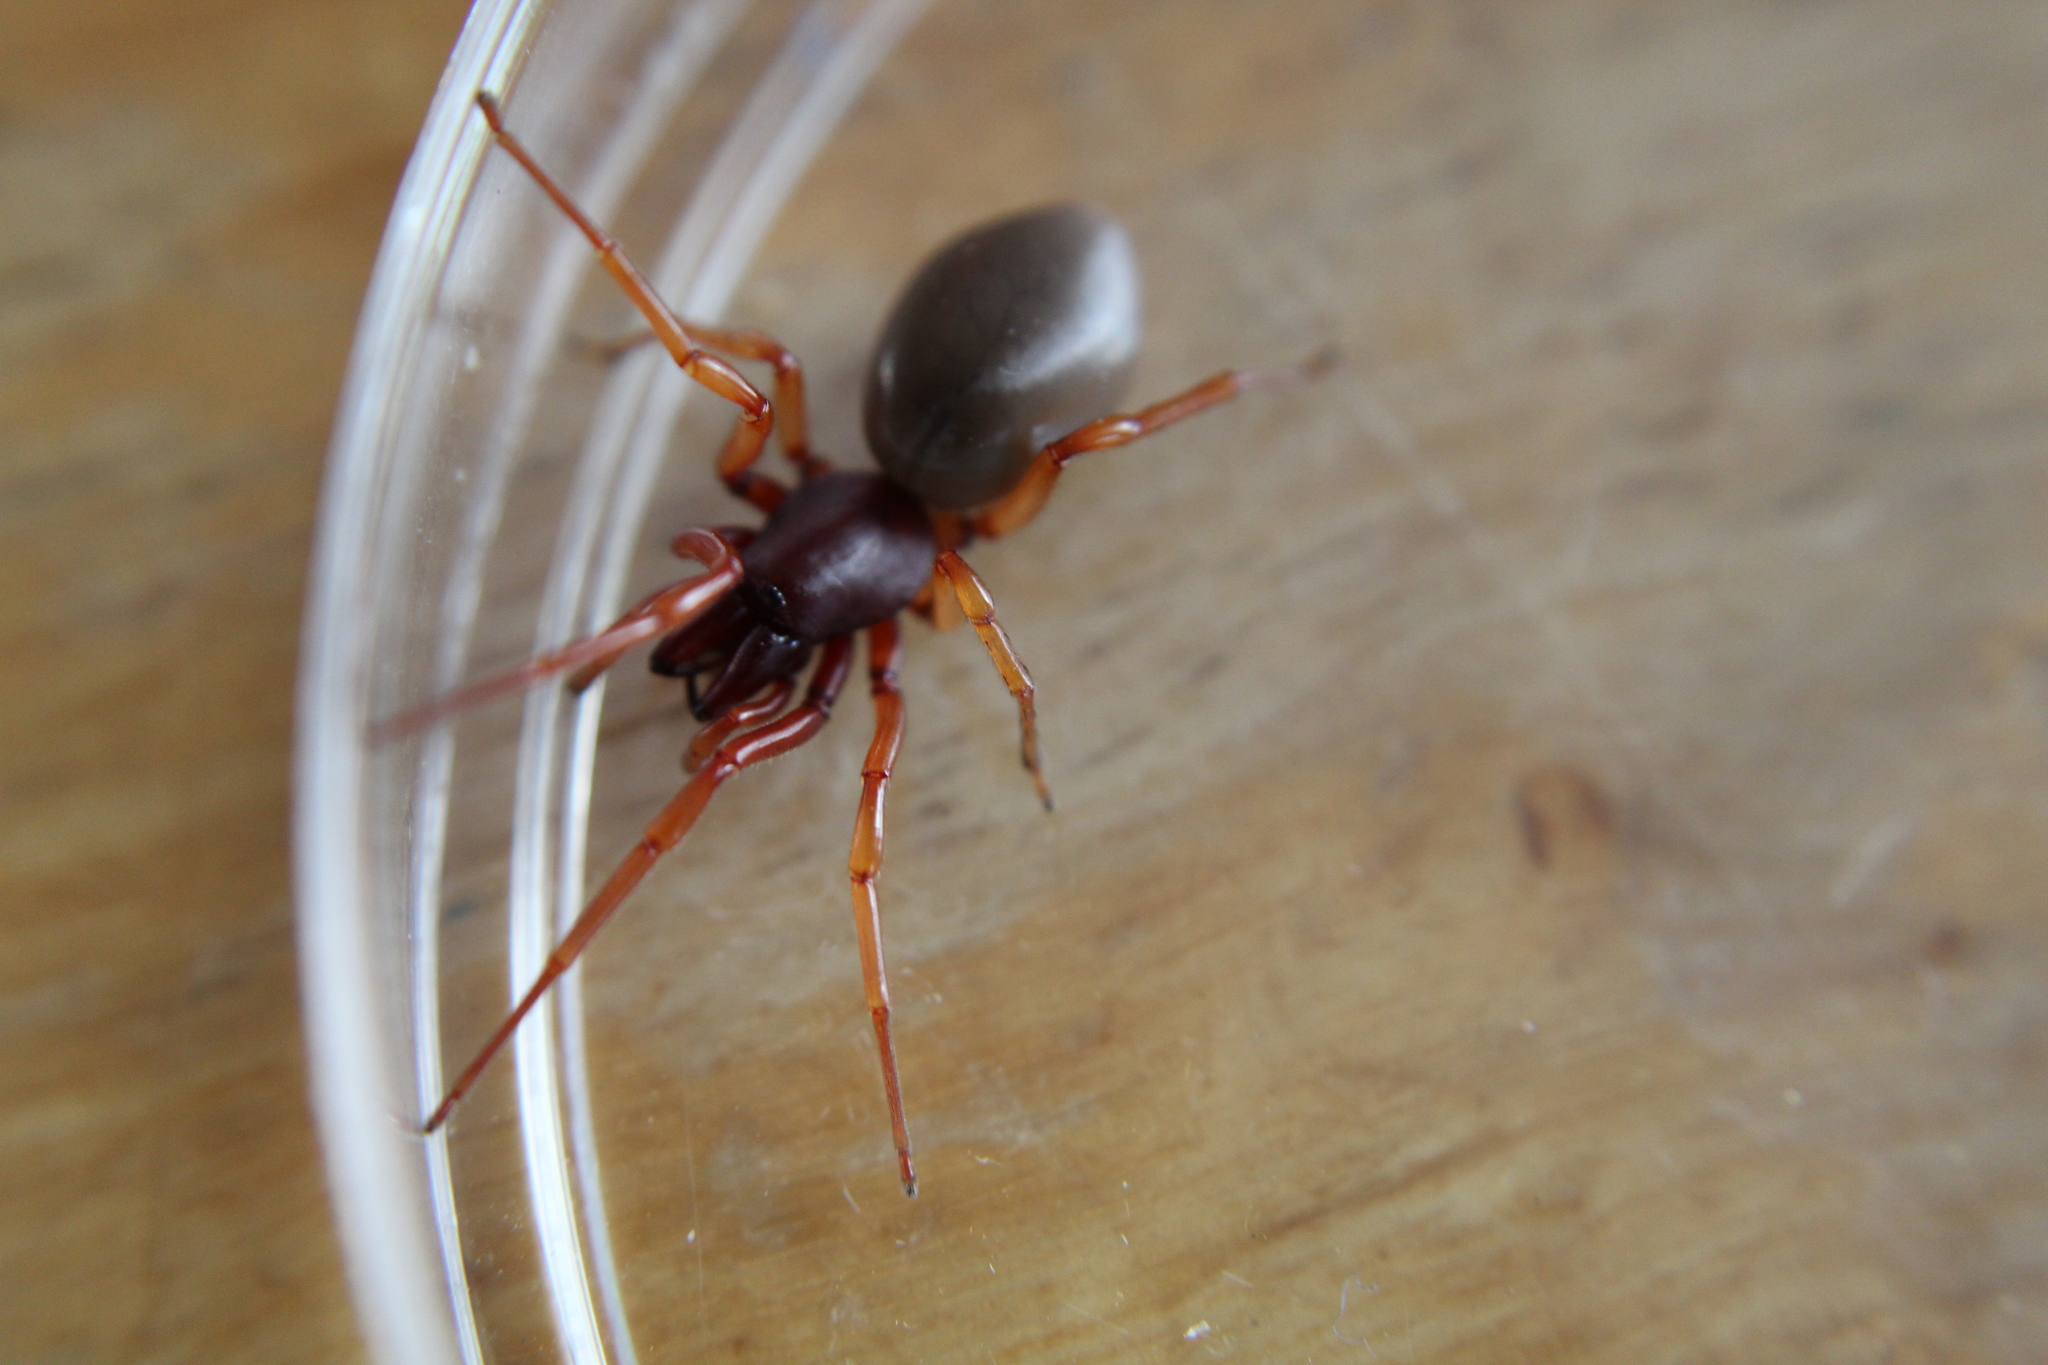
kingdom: Animalia
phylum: Arthropoda
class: Arachnida
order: Araneae
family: Dysderidae
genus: Dysdera
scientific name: Dysdera crocata
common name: Woodlouse spider
